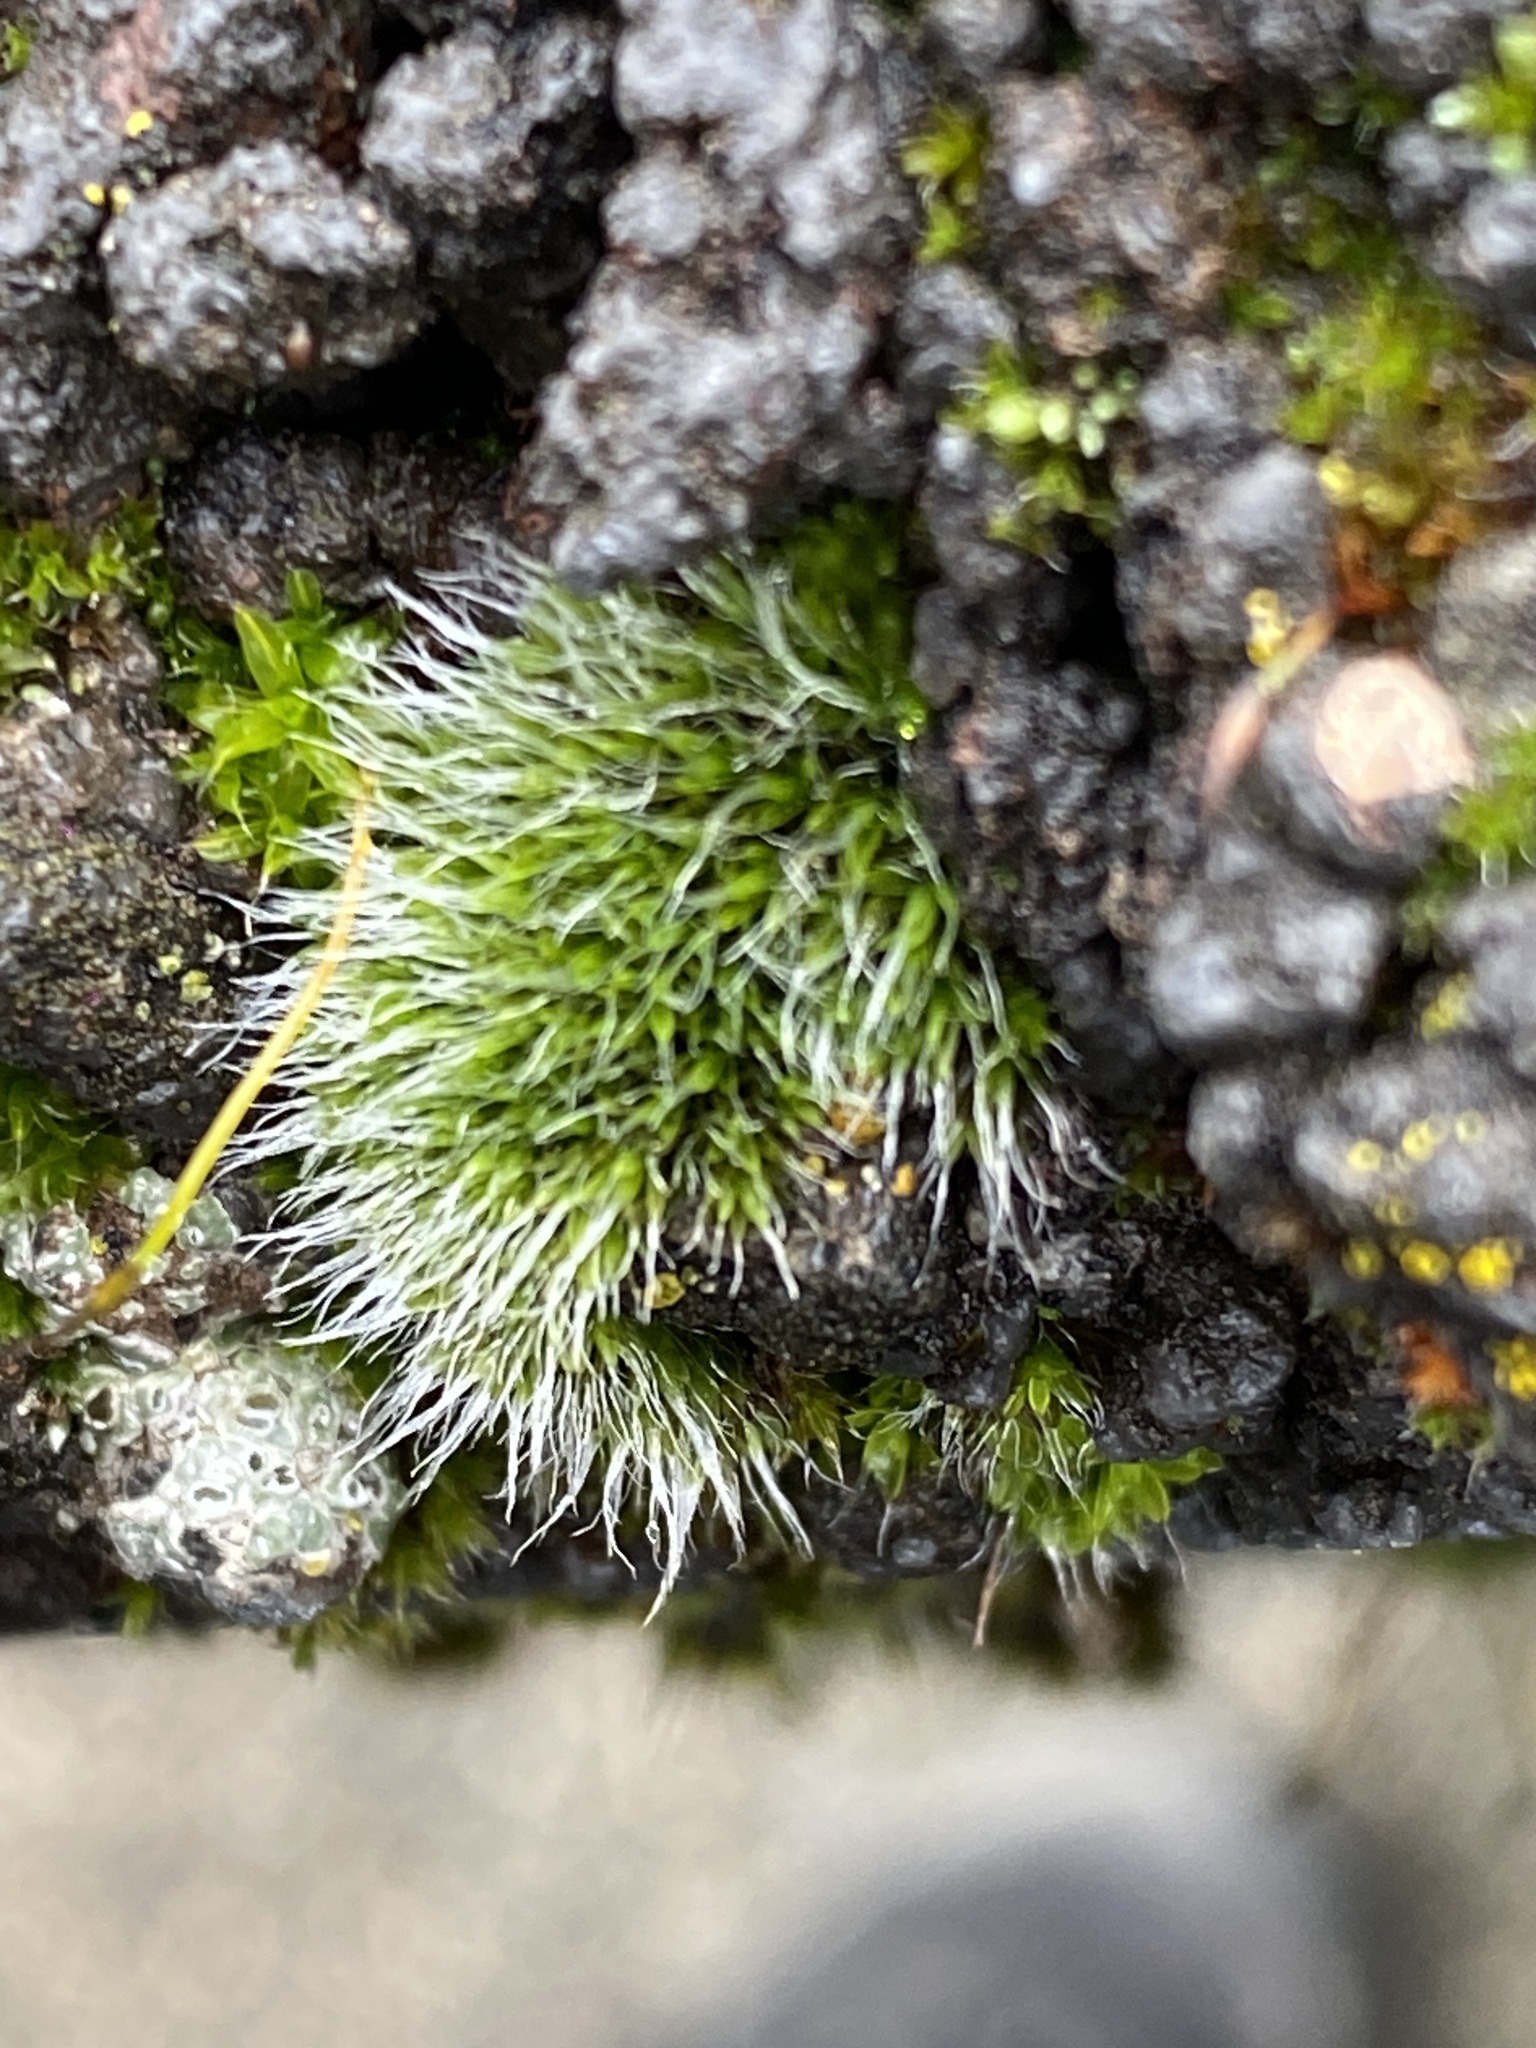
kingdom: Plantae
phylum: Bryophyta
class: Bryopsida
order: Grimmiales
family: Grimmiaceae
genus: Grimmia
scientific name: Grimmia pulvinata
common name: Grey-cushioned grimmia
